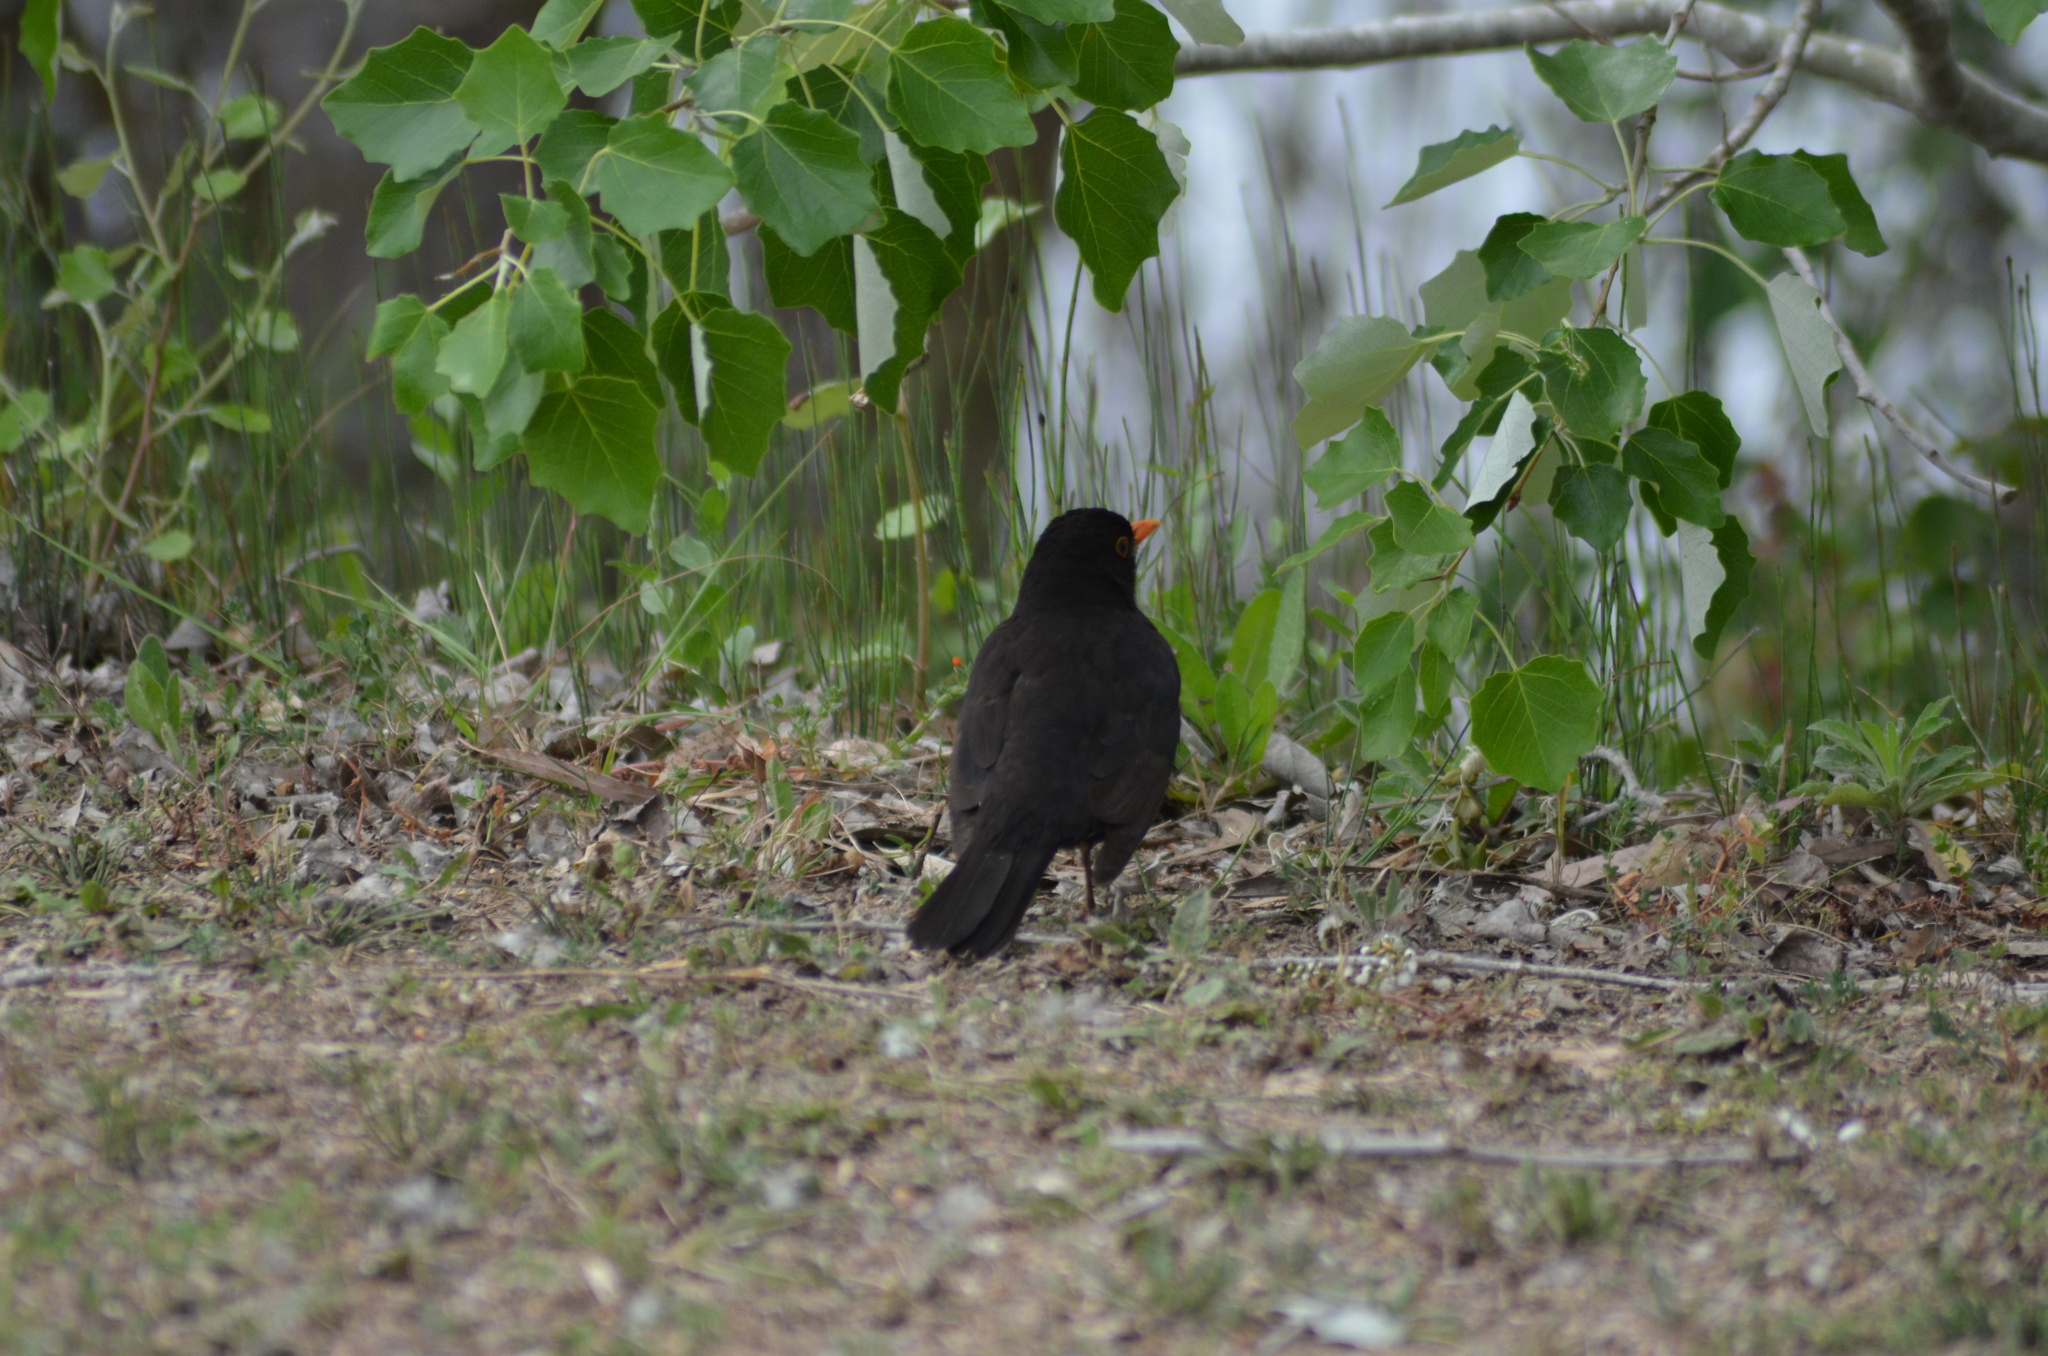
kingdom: Animalia
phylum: Chordata
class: Aves
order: Passeriformes
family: Turdidae
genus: Turdus
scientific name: Turdus merula
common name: Common blackbird
